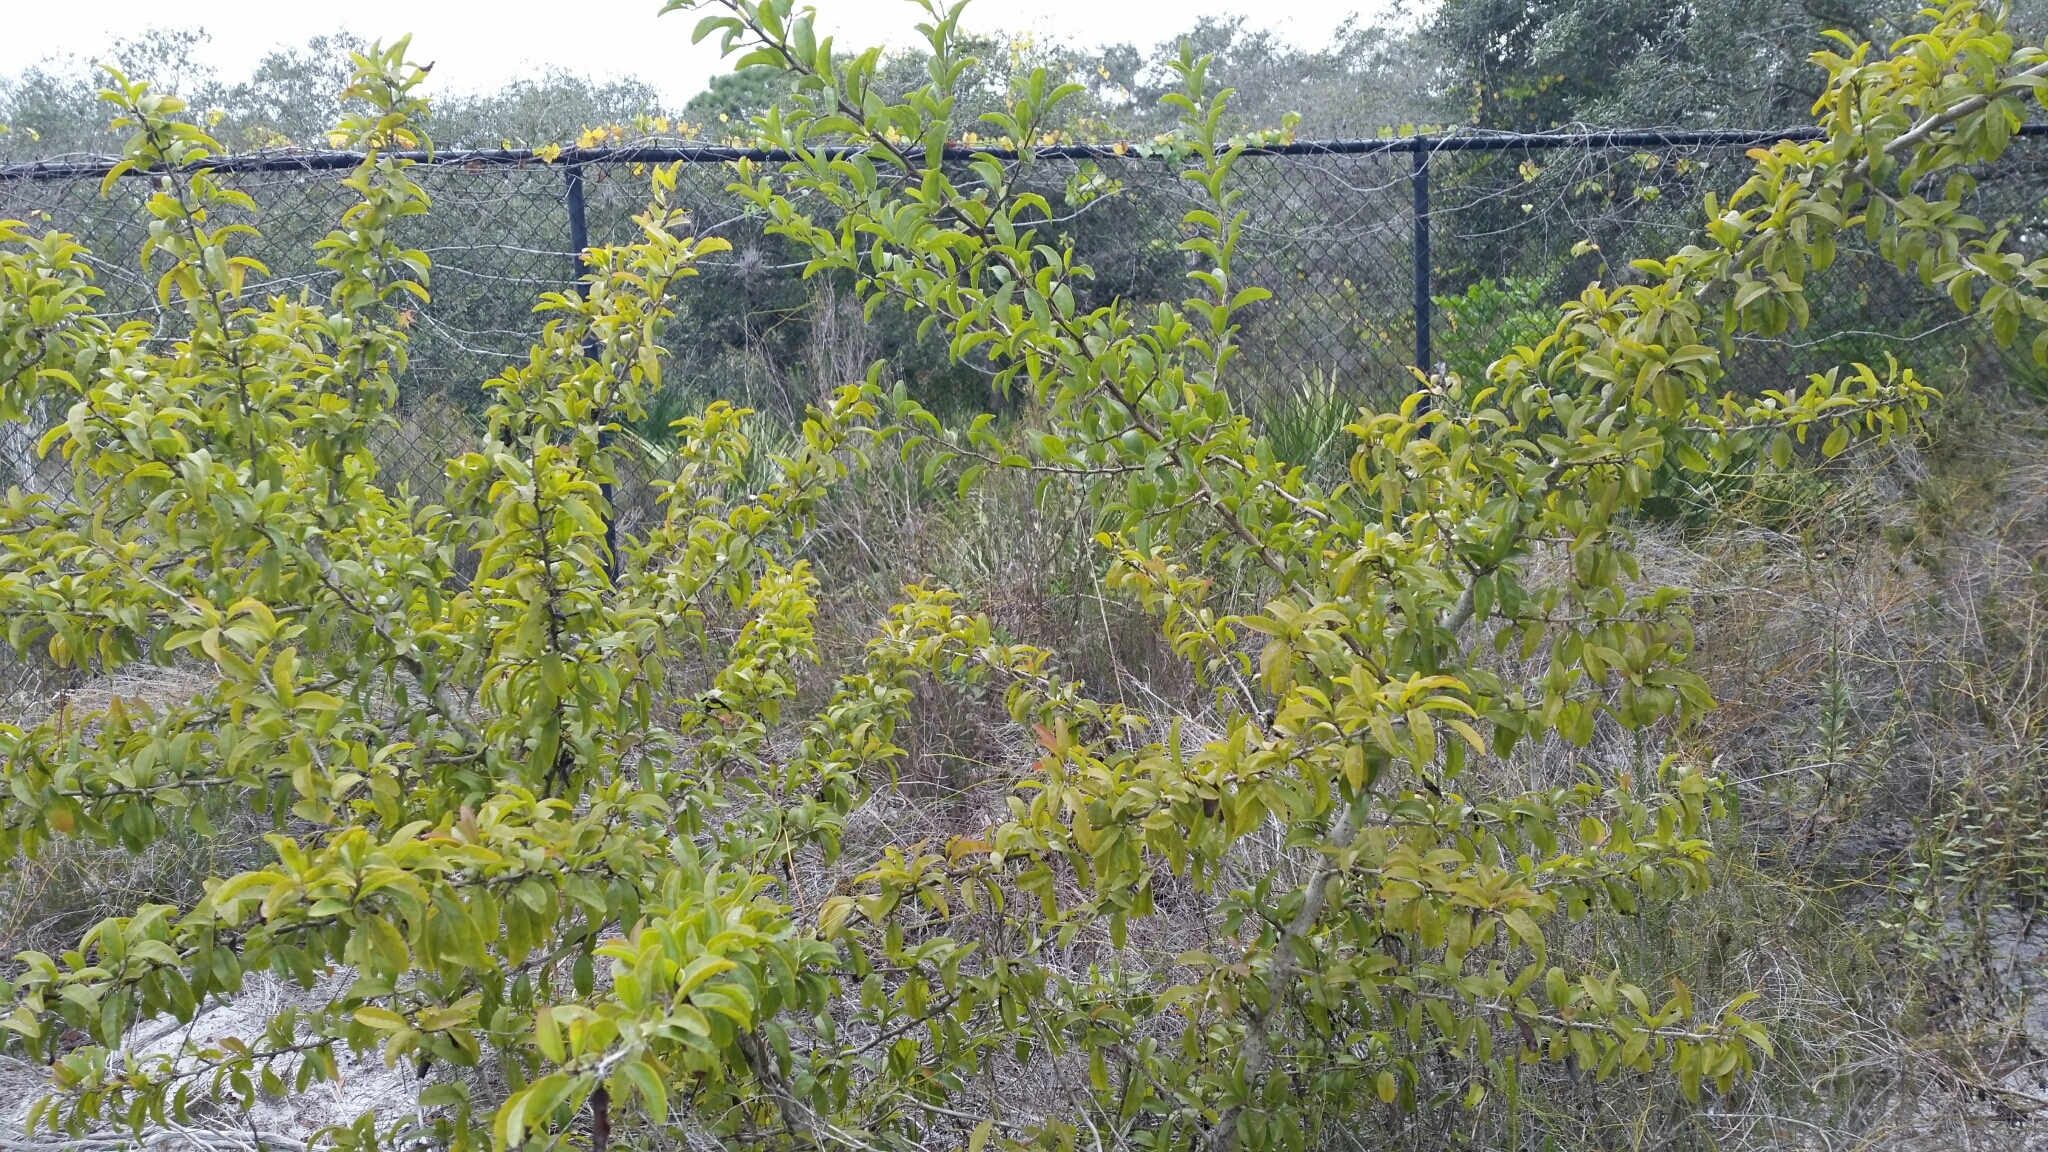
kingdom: Plantae
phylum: Tracheophyta
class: Magnoliopsida
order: Santalales
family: Ximeniaceae
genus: Ximenia
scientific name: Ximenia americana
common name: Tallowwood
